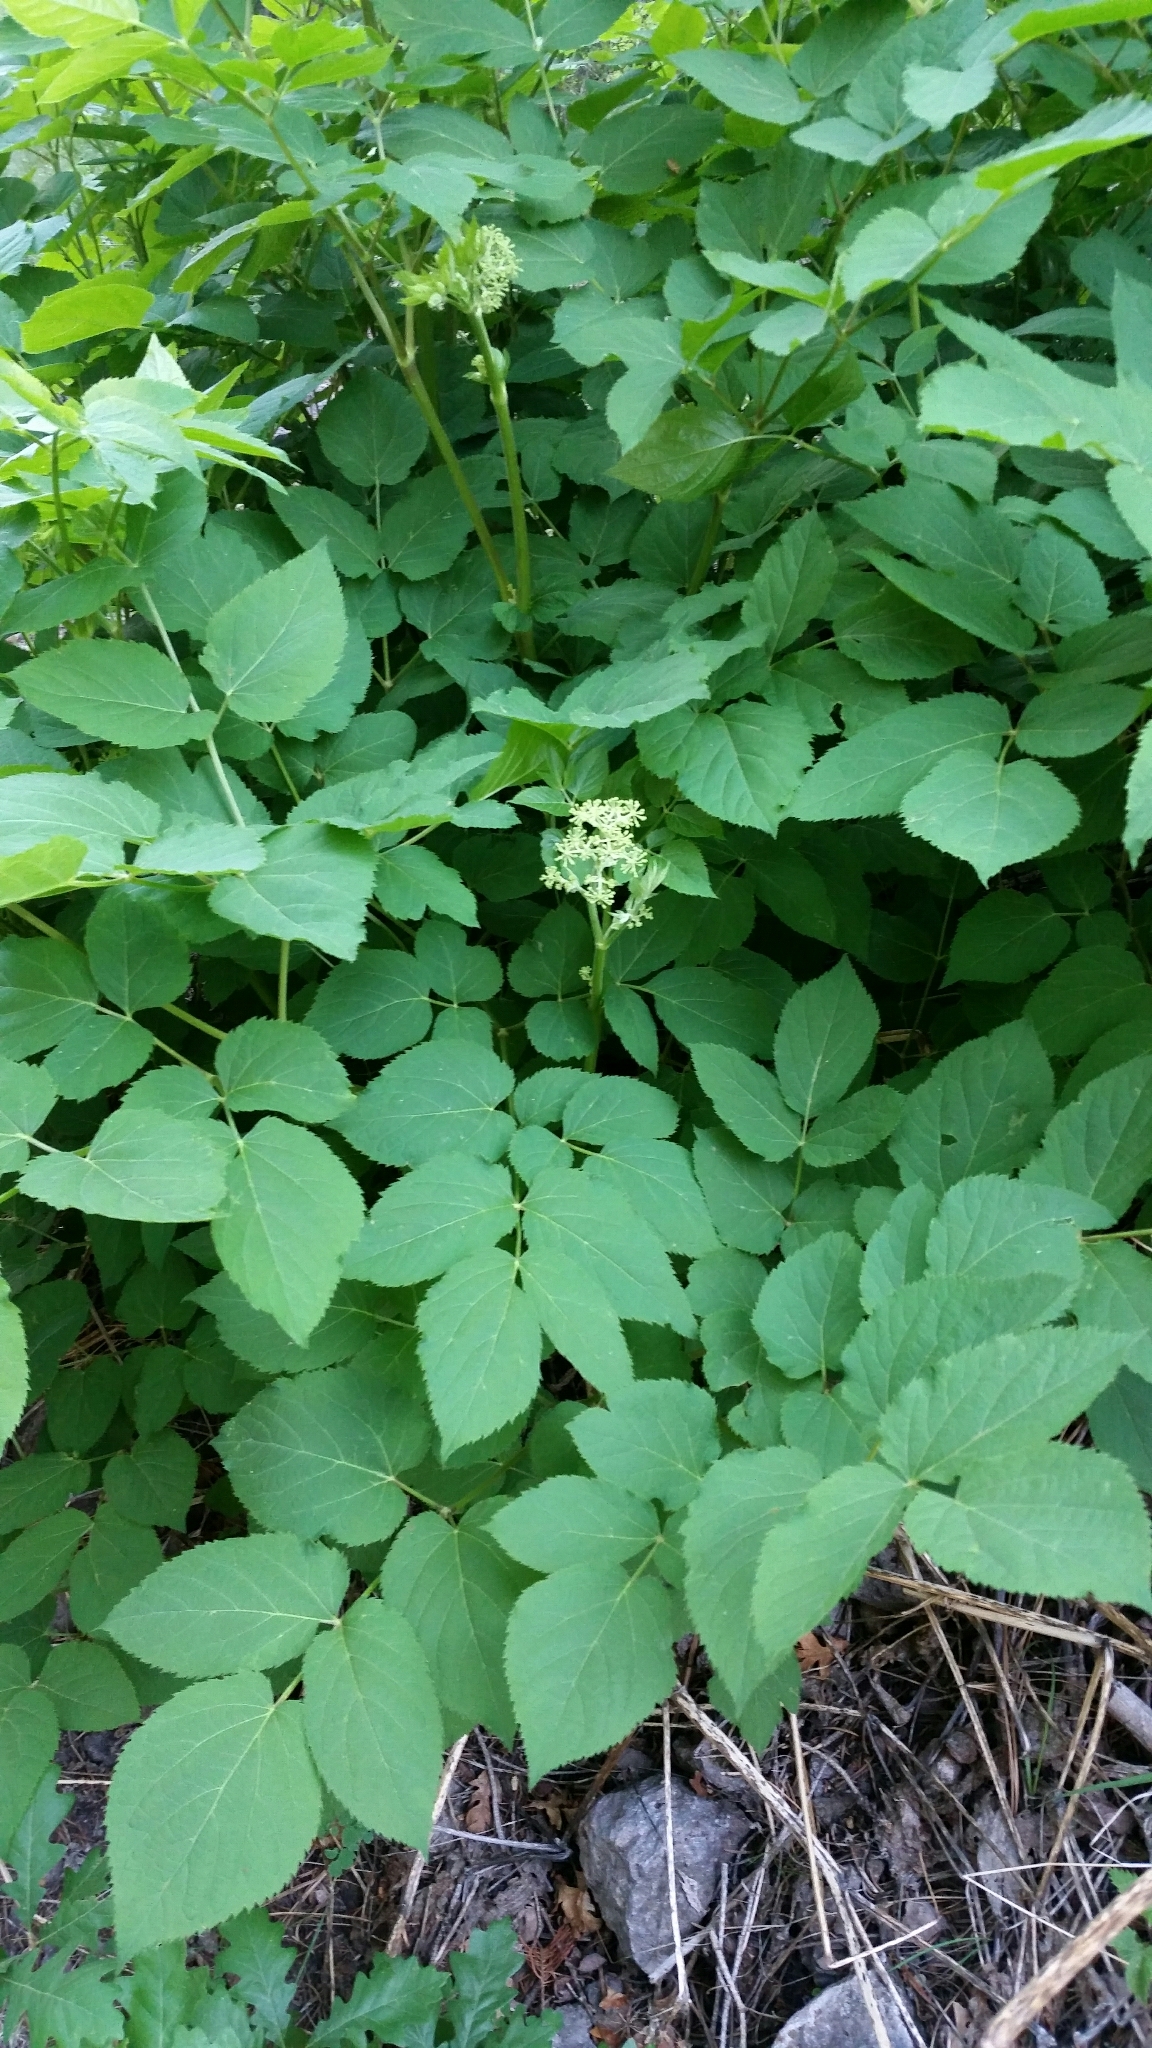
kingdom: Plantae
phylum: Tracheophyta
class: Magnoliopsida
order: Apiales
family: Araliaceae
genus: Aralia
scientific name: Aralia bicrenata
